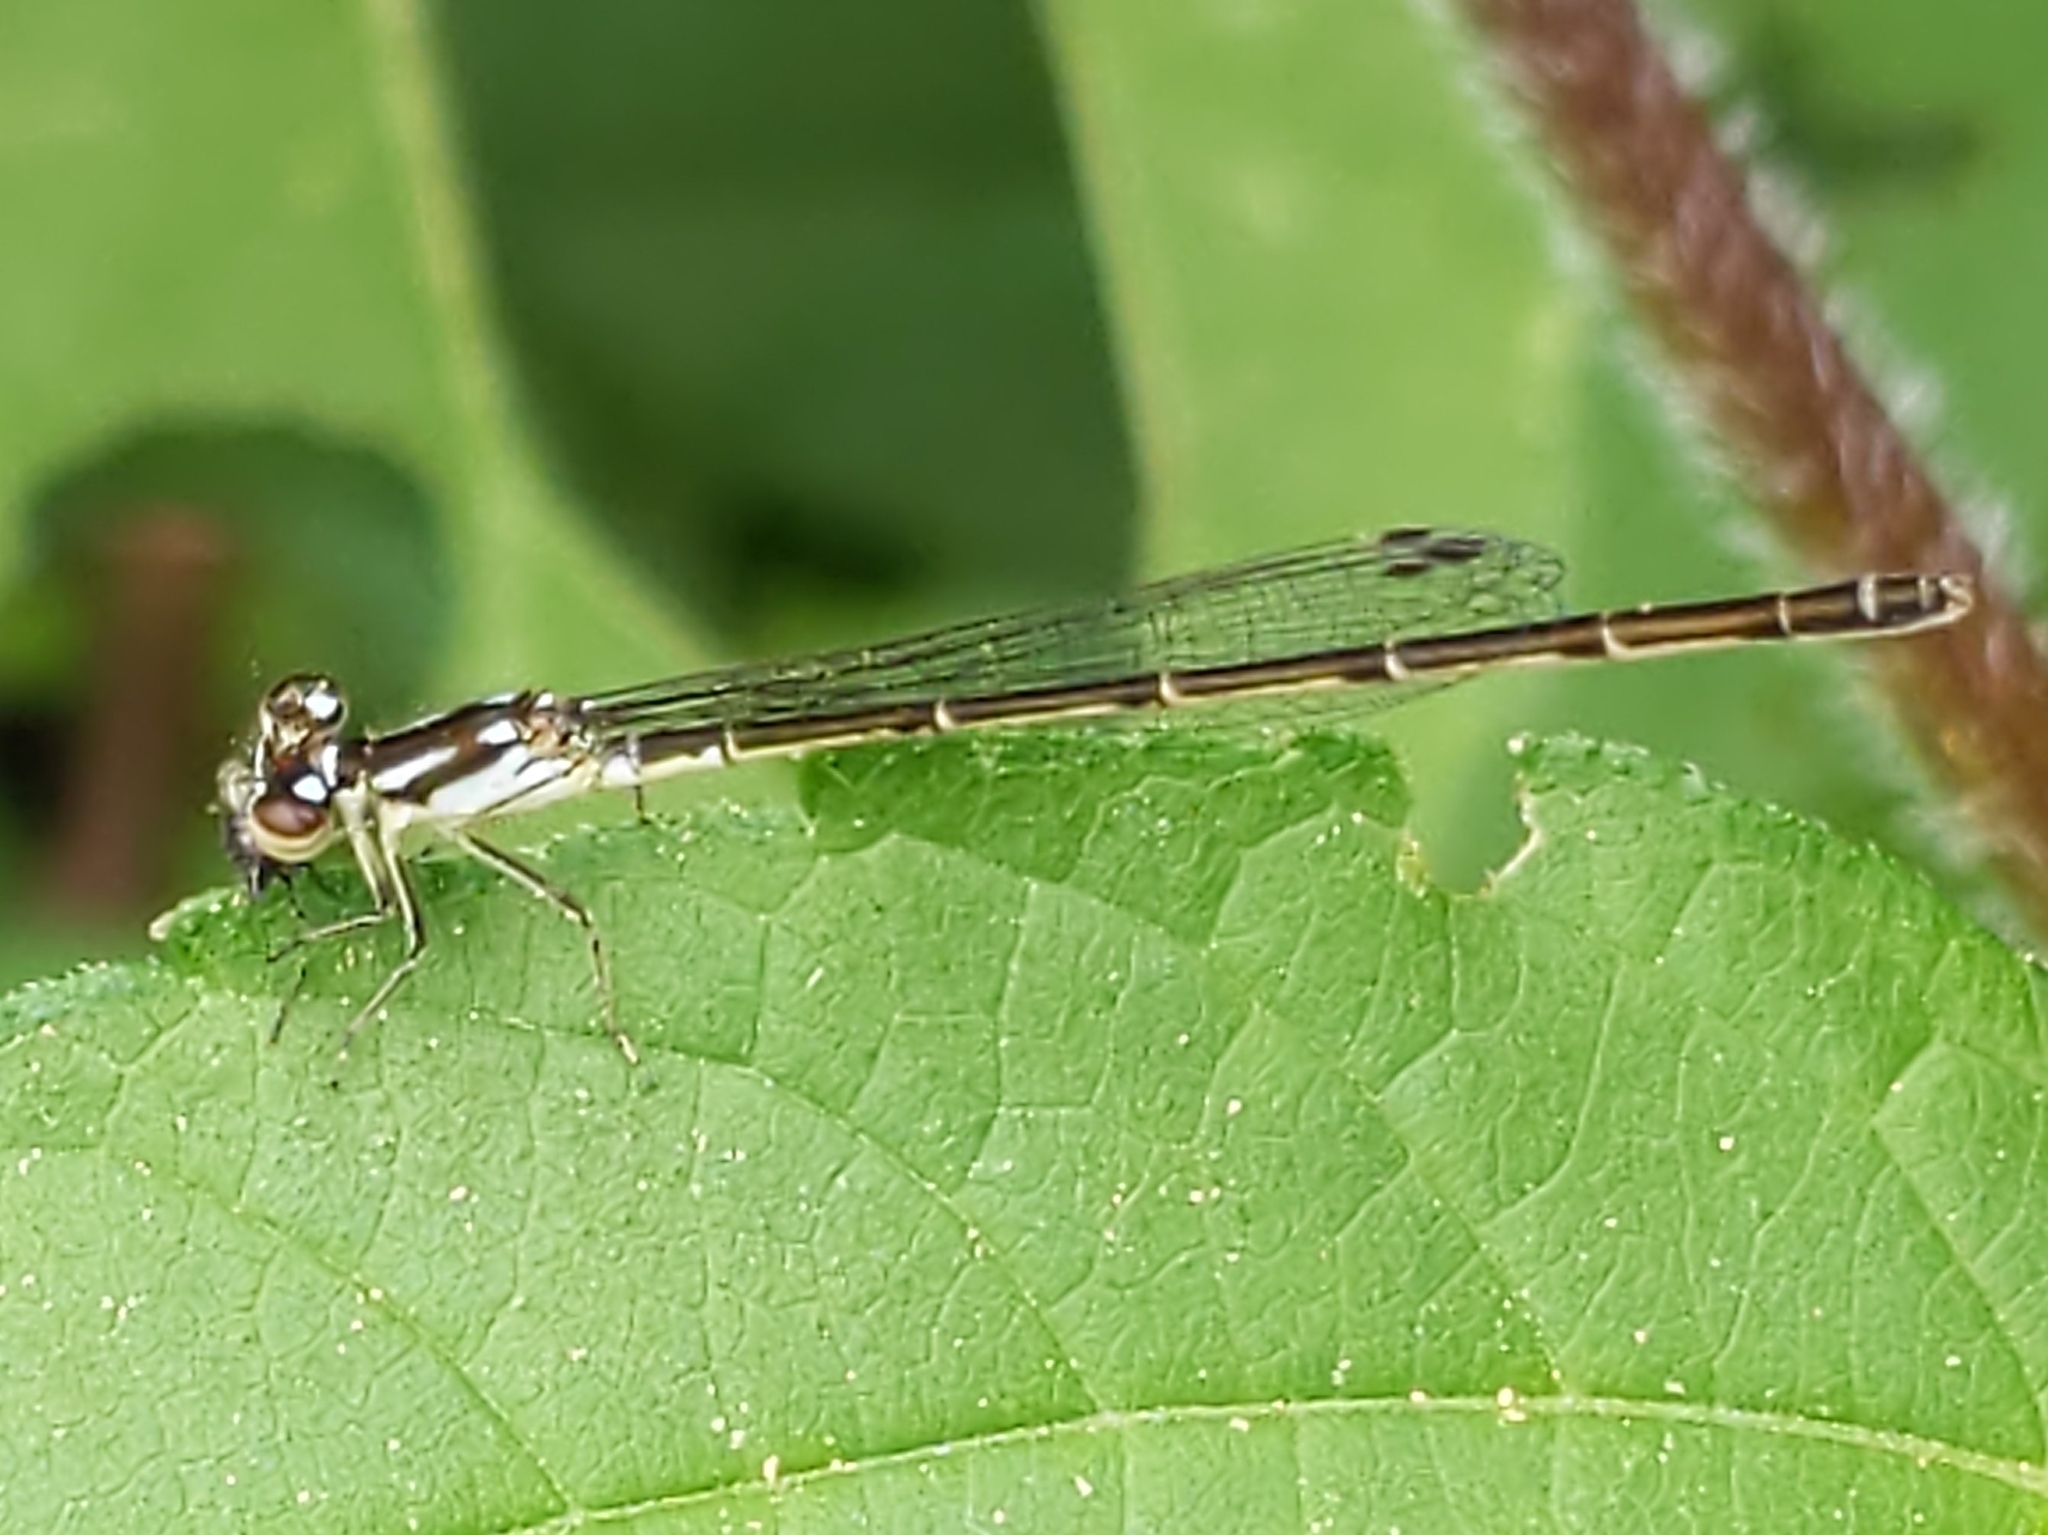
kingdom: Animalia
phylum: Arthropoda
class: Insecta
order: Odonata
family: Coenagrionidae
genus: Ischnura
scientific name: Ischnura posita
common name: Fragile forktail
